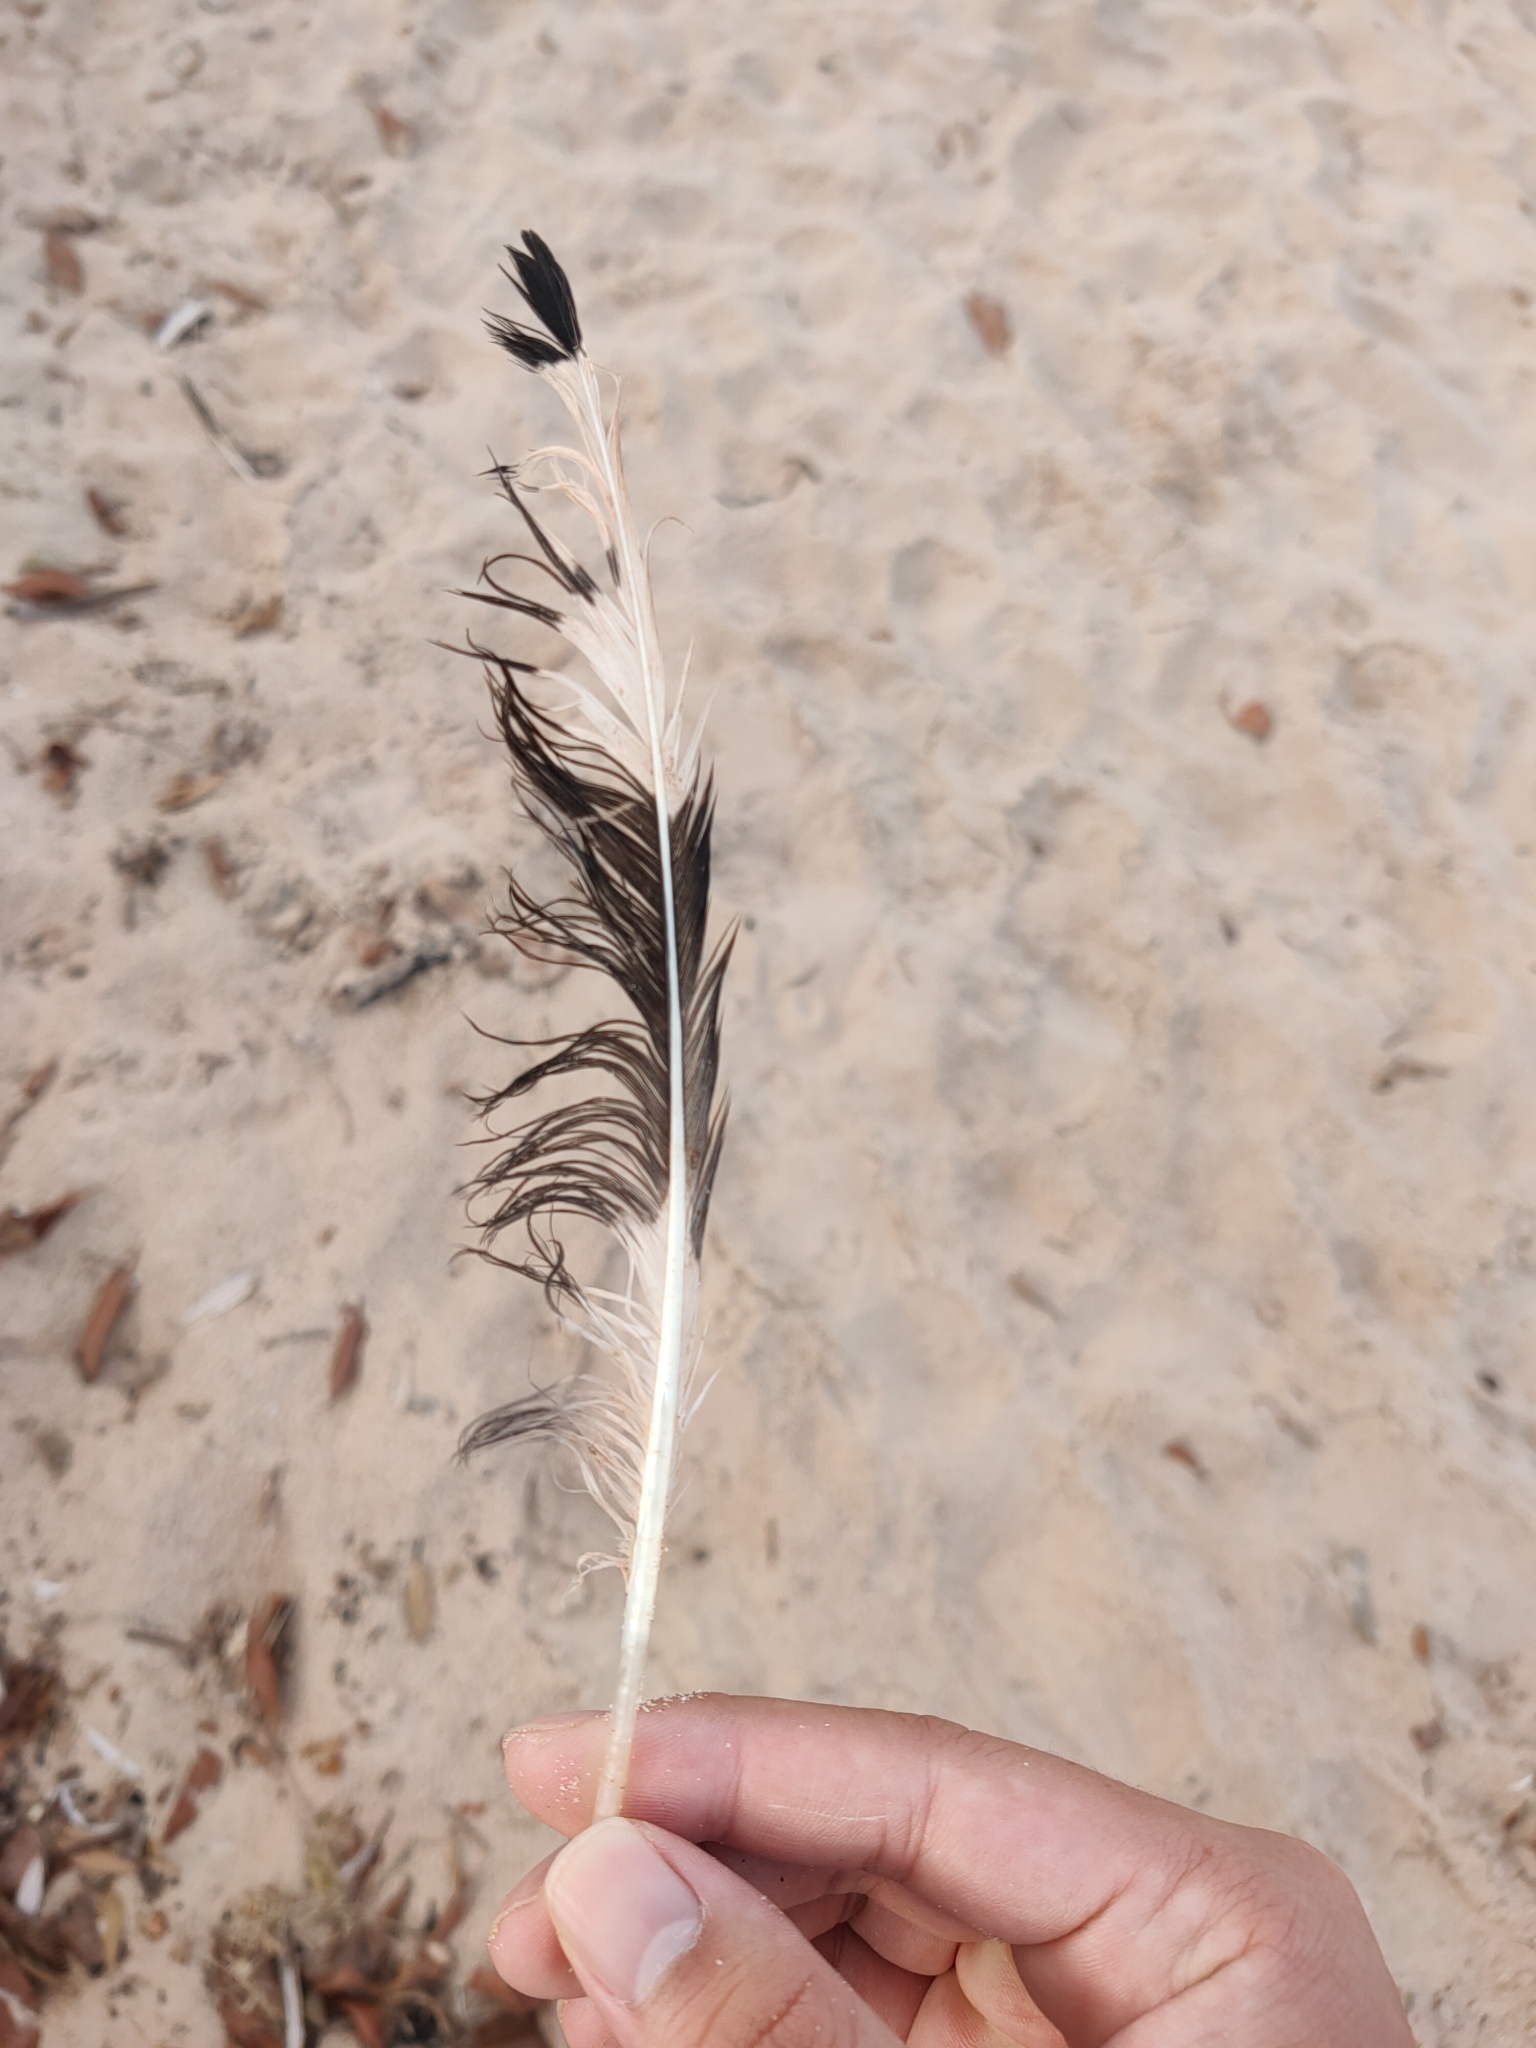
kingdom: Animalia
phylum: Chordata
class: Aves
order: Charadriiformes
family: Laridae
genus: Chroicocephalus
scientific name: Chroicocephalus novaehollandiae
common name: Silver gull
